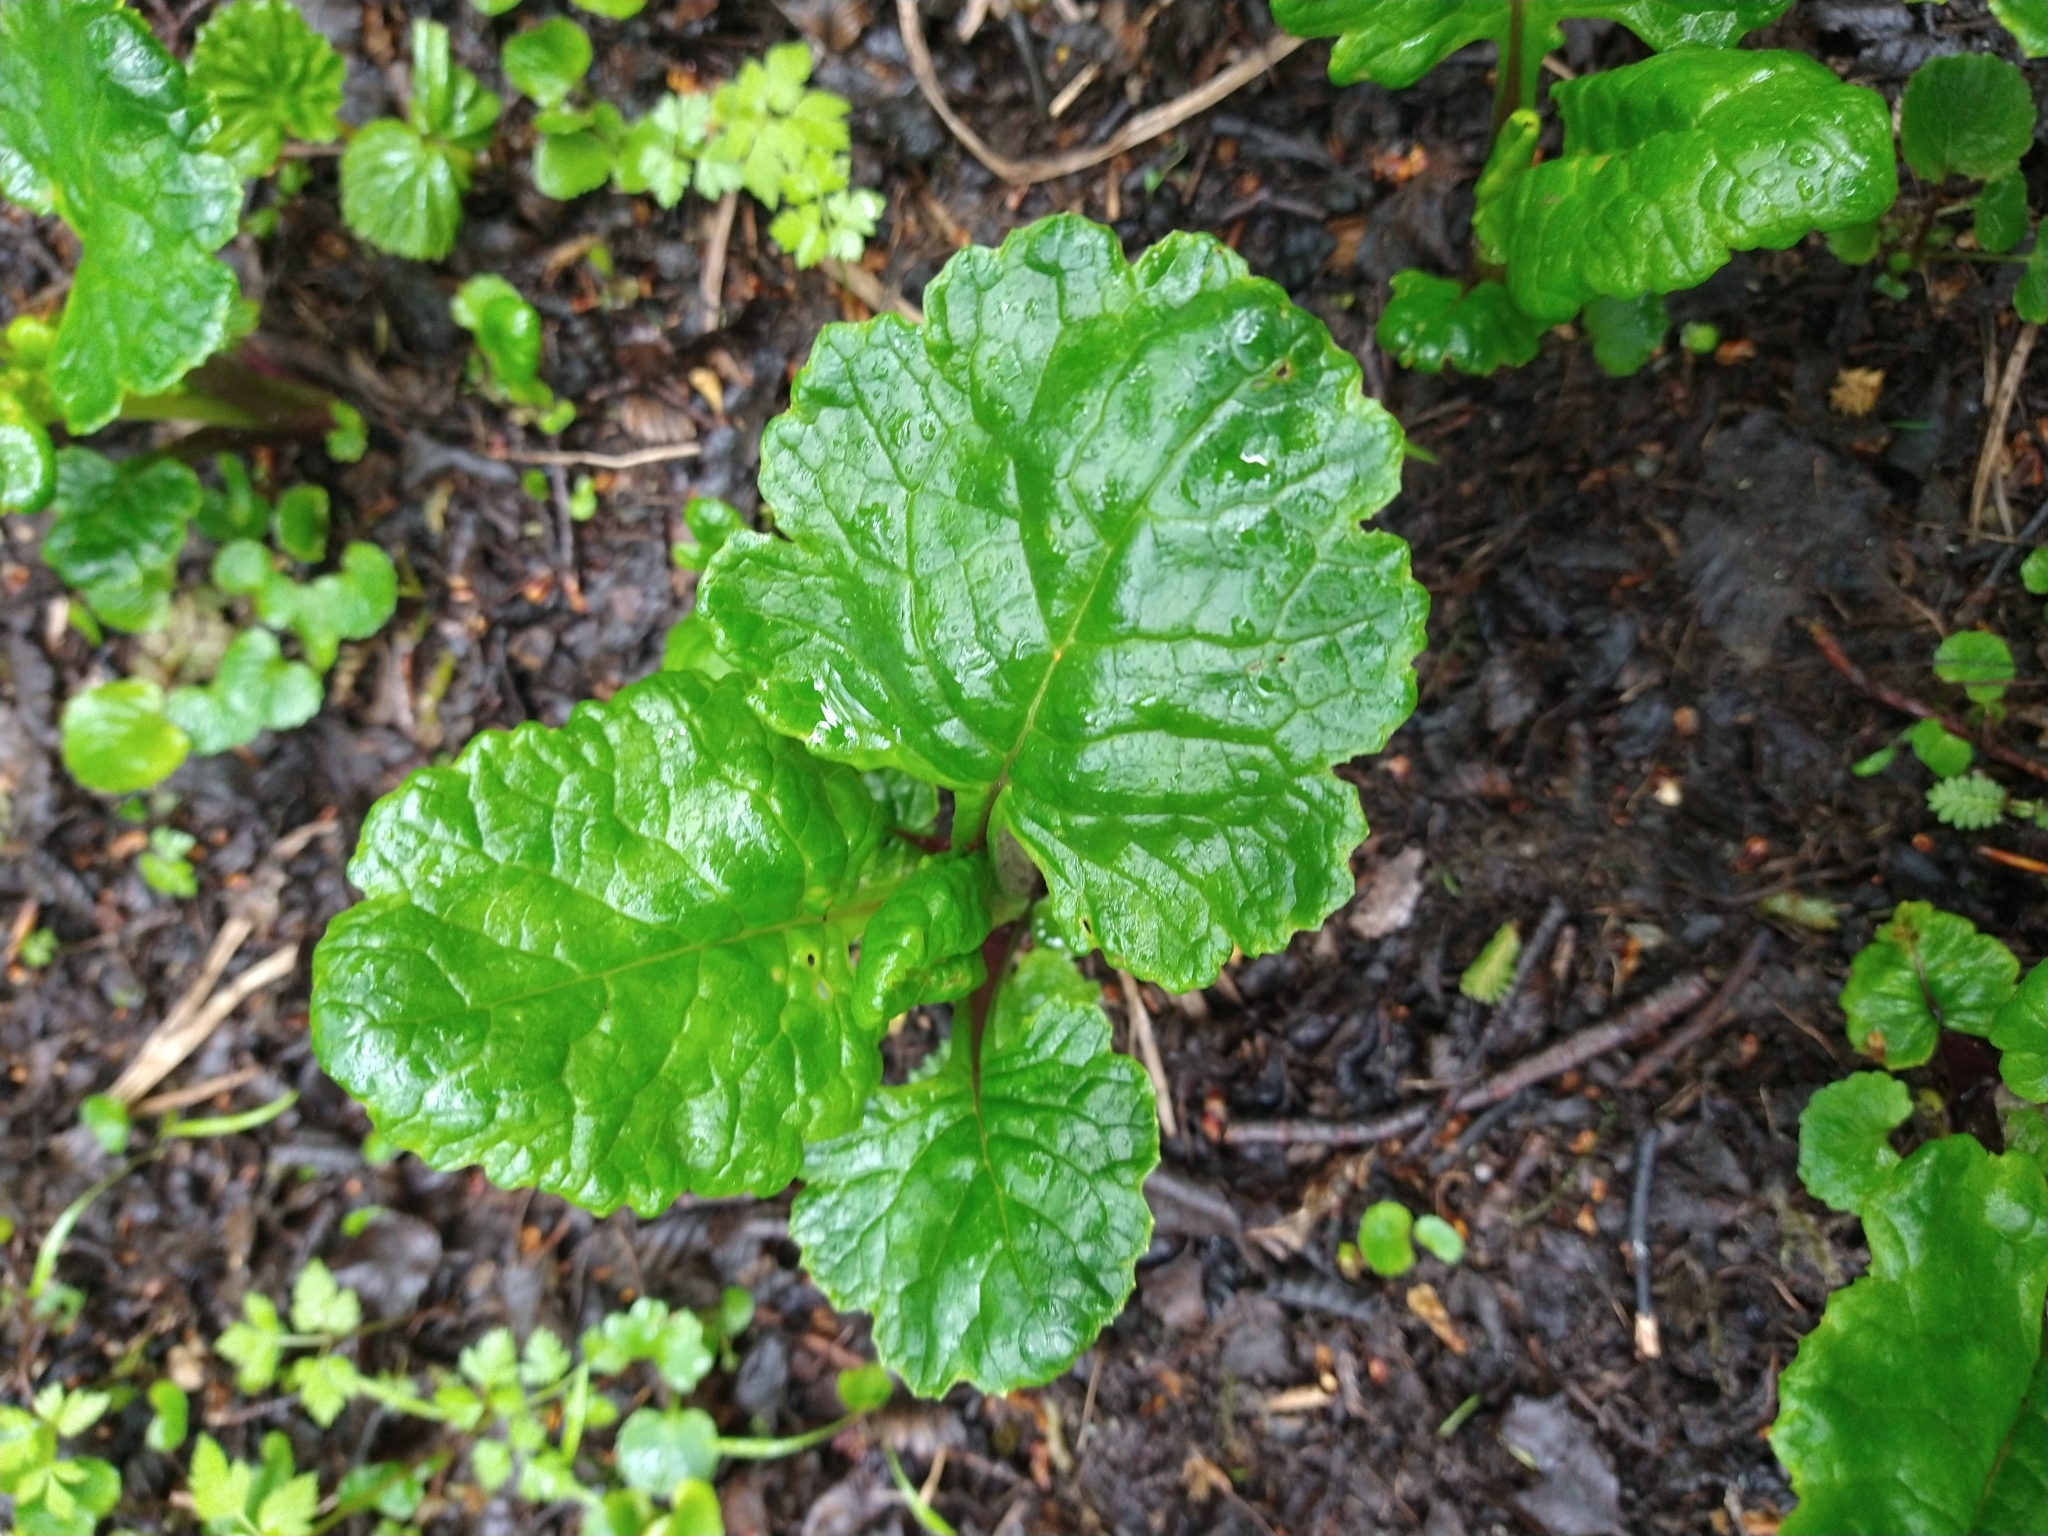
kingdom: Plantae
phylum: Tracheophyta
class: Magnoliopsida
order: Asterales
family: Asteraceae
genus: Iocenes
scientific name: Iocenes virens
